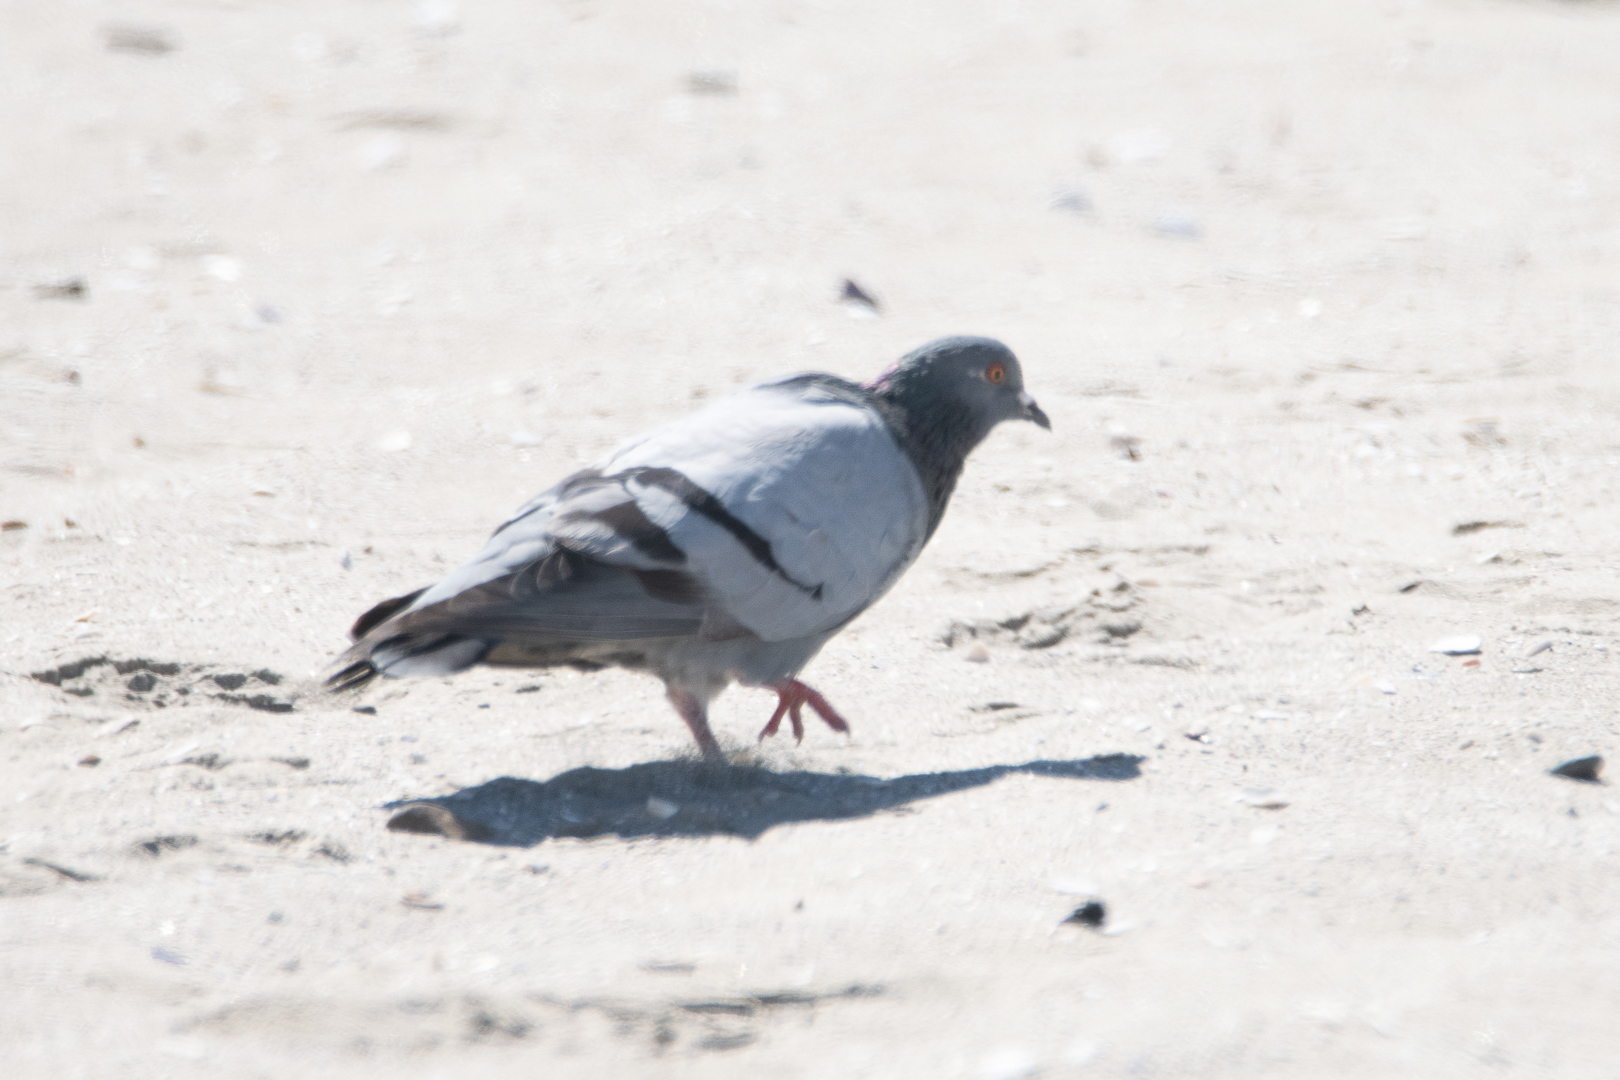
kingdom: Animalia
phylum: Chordata
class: Aves
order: Columbiformes
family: Columbidae
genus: Columba
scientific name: Columba livia
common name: Rock pigeon
